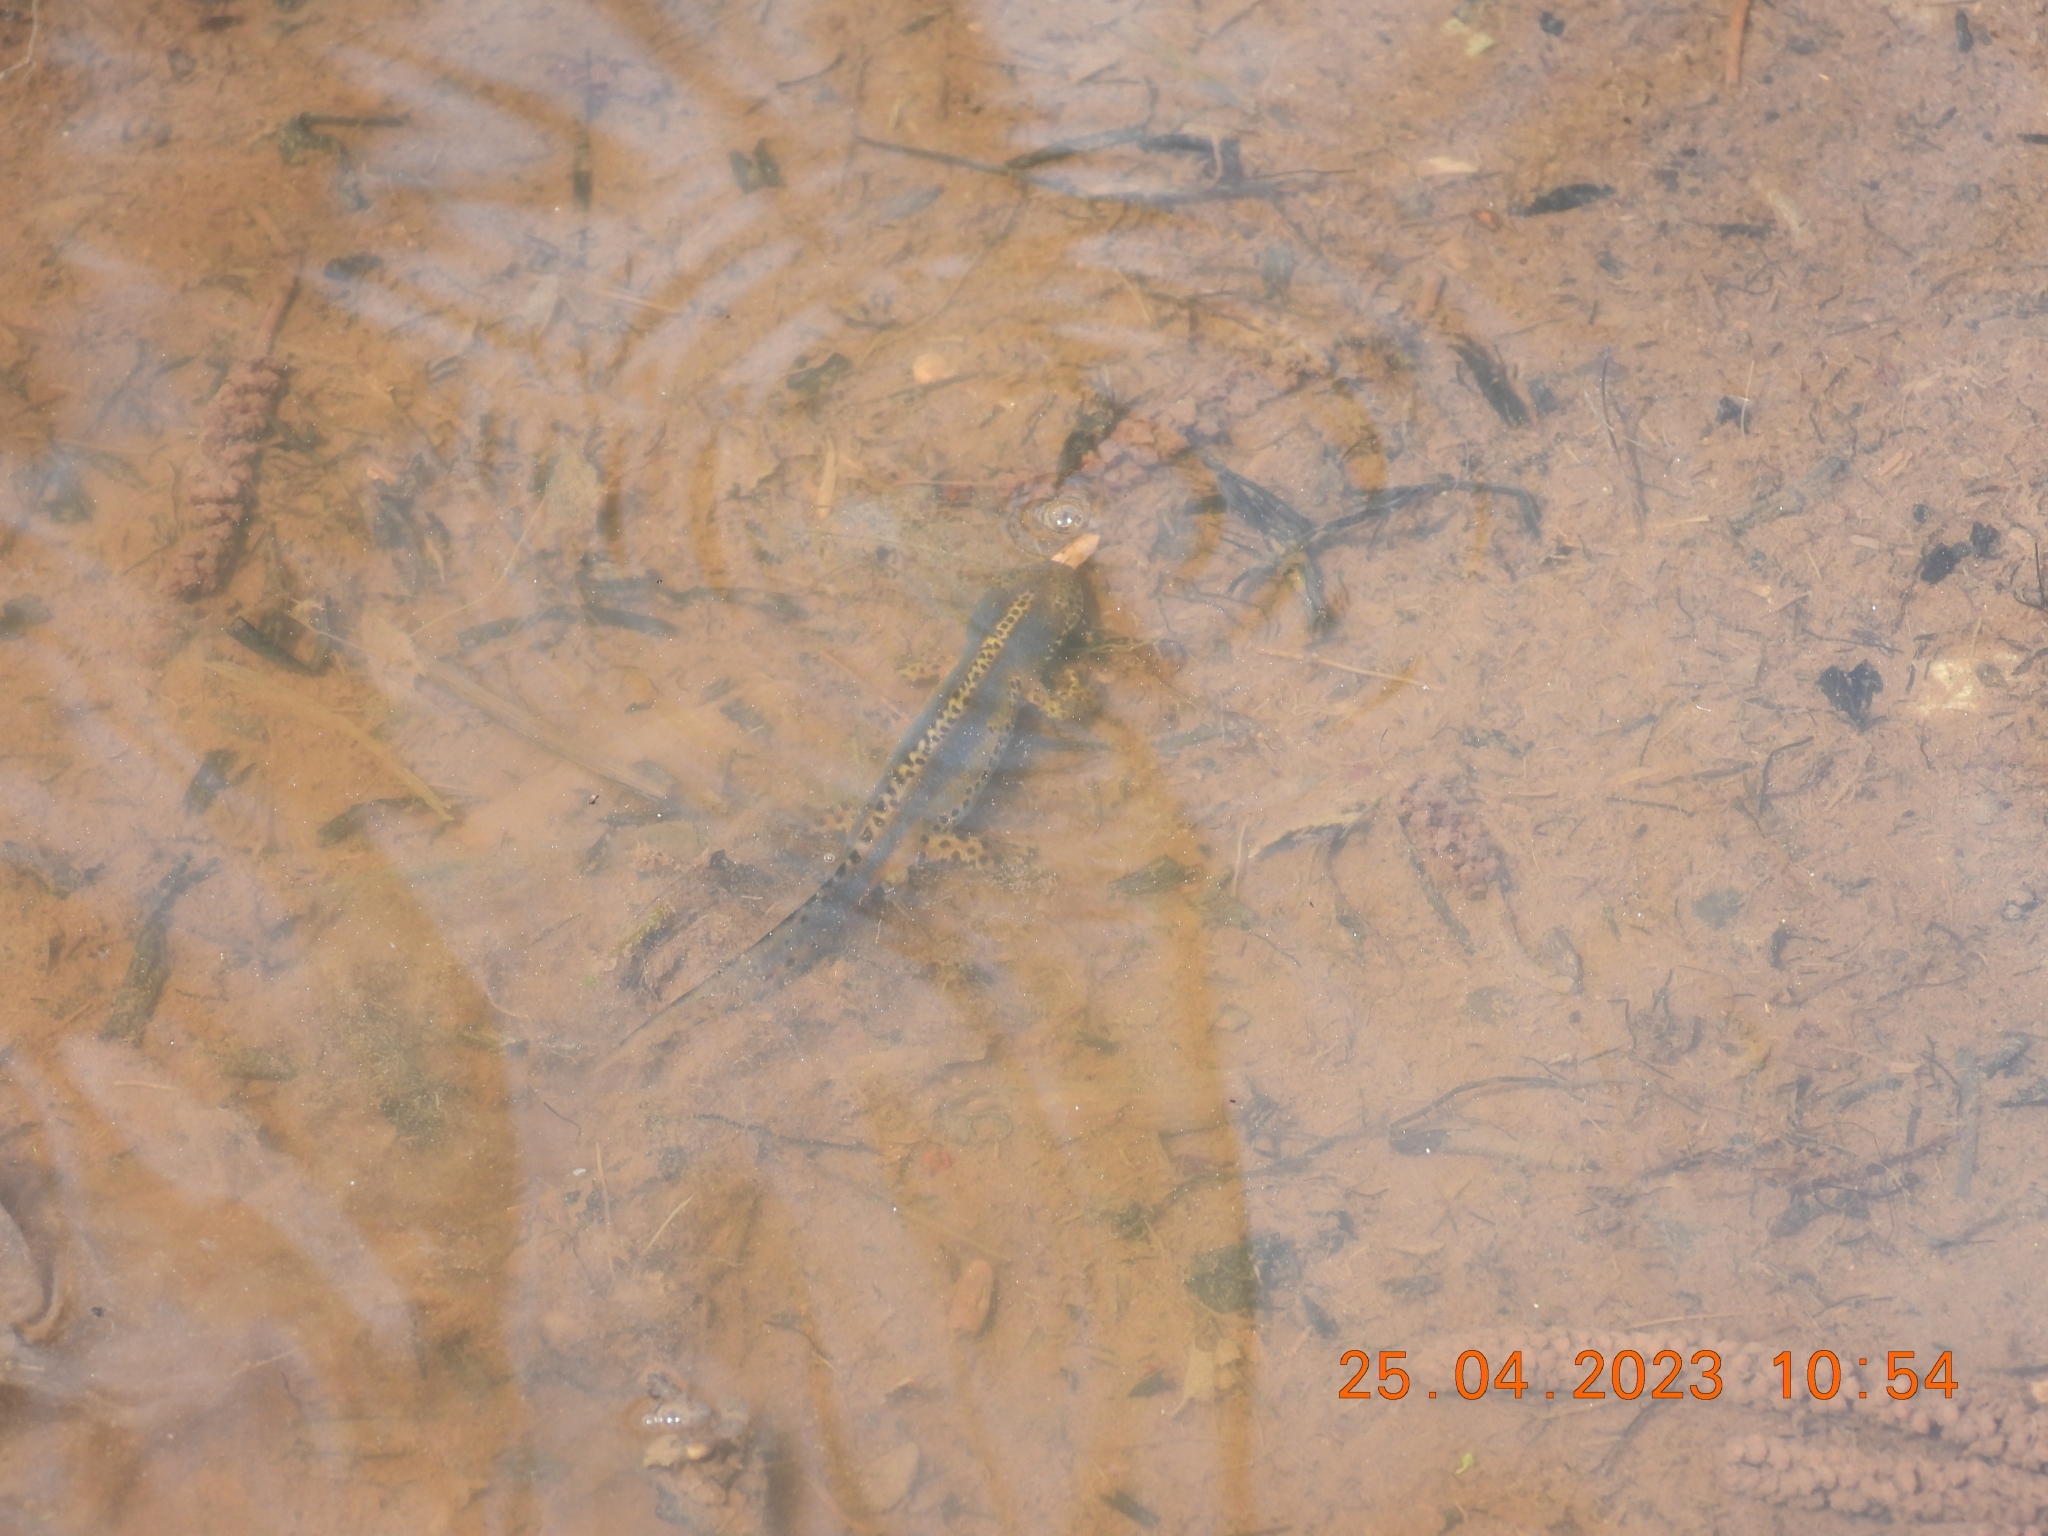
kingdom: Animalia
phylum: Chordata
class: Amphibia
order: Caudata
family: Salamandridae
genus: Ichthyosaura
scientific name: Ichthyosaura alpestris
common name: Alpine newt
